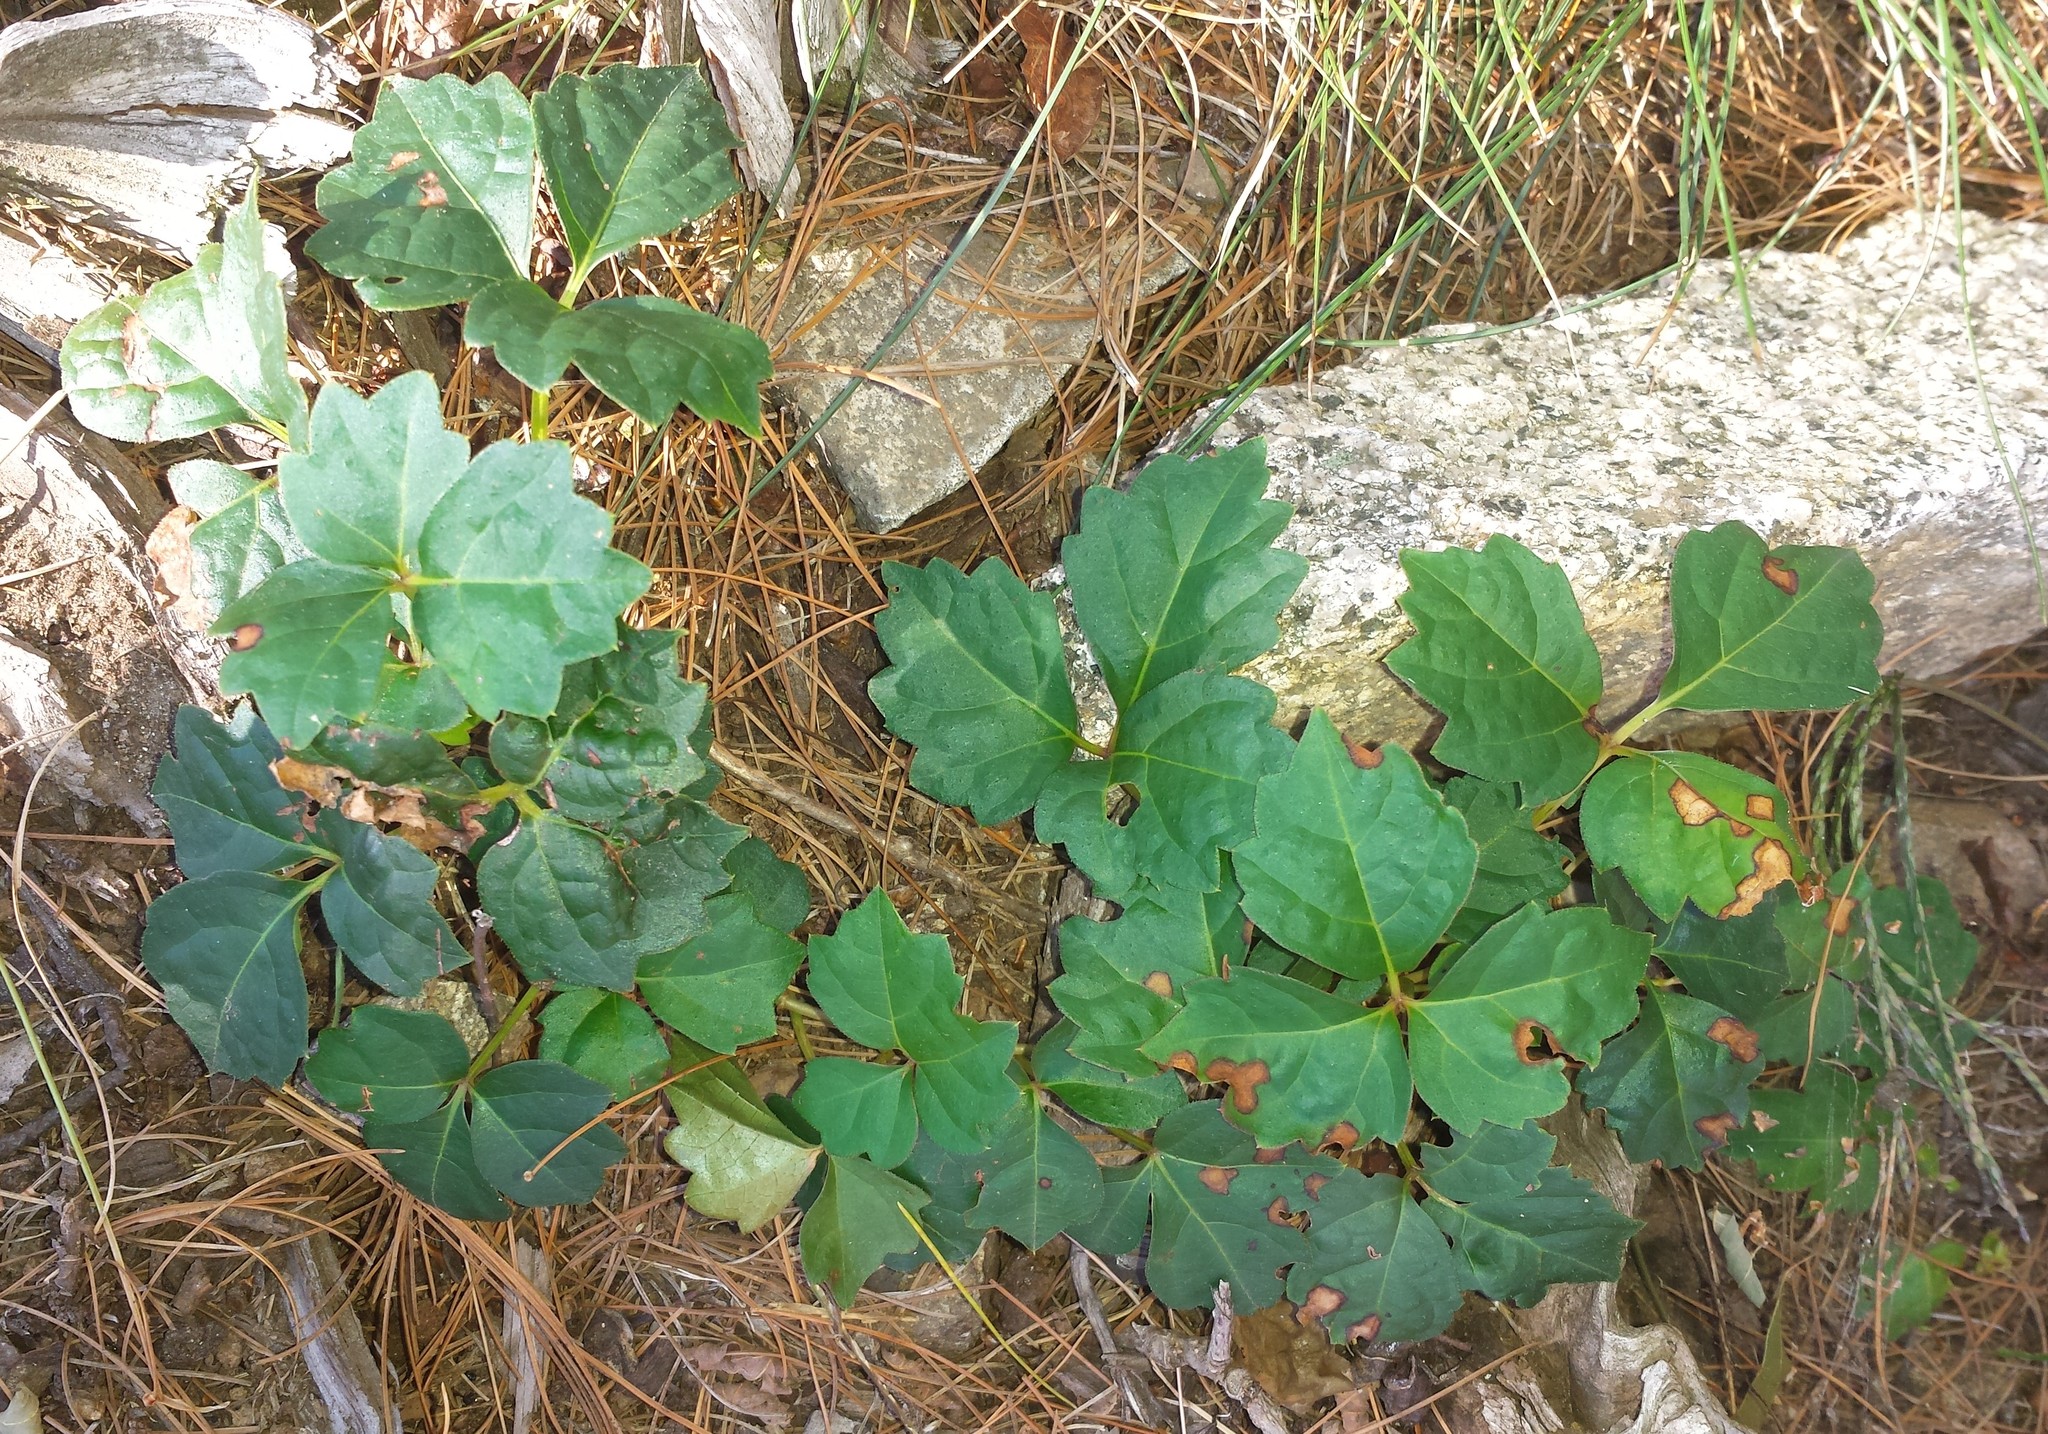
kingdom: Plantae
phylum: Tracheophyta
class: Magnoliopsida
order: Vitales
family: Vitaceae
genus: Parthenocissus
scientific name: Parthenocissus tricuspidata
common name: Boston ivy
